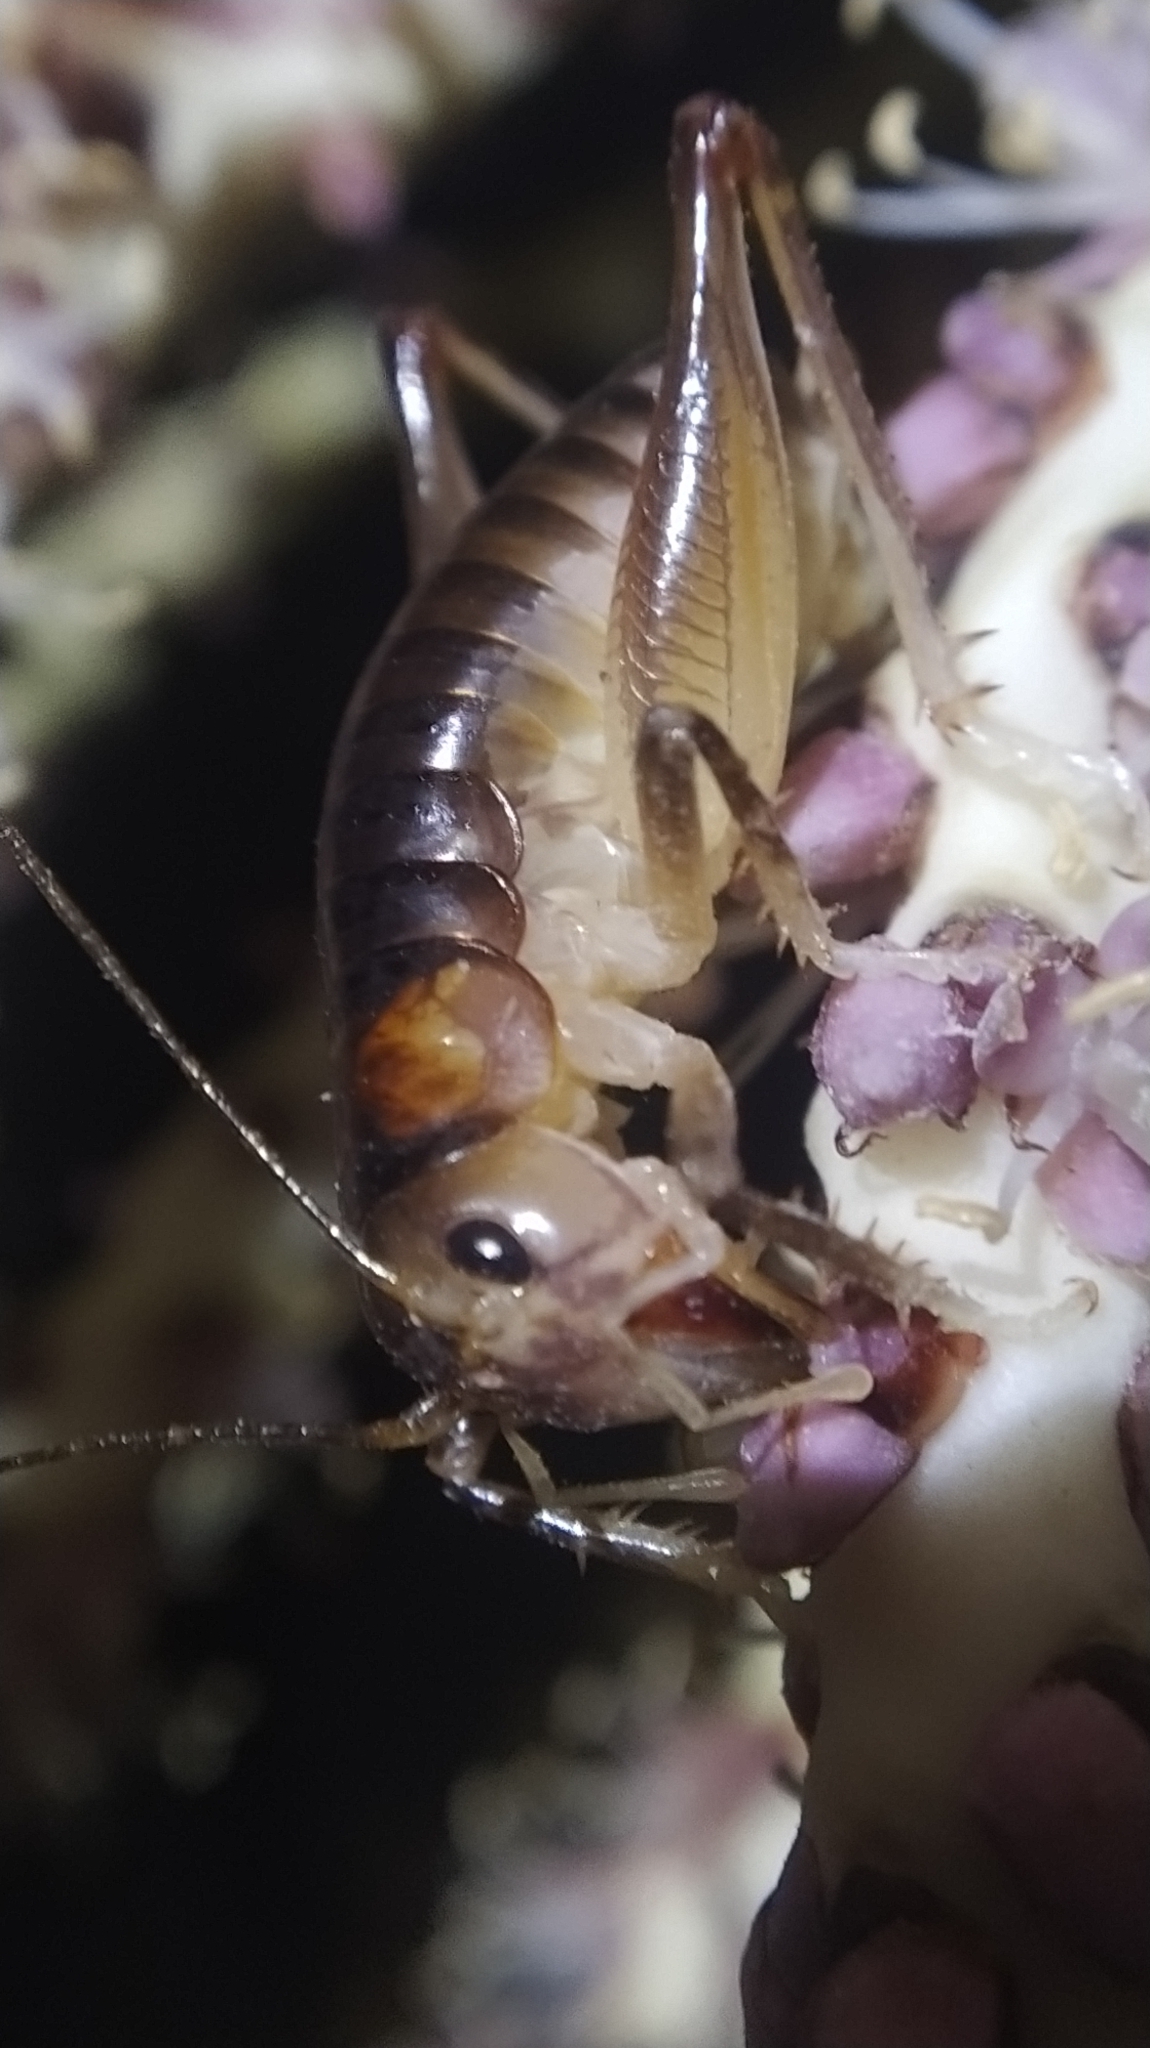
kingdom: Animalia
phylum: Arthropoda
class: Insecta
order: Orthoptera
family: Anostostomatidae
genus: Hemiandrus
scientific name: Hemiandrus pallitarsis
